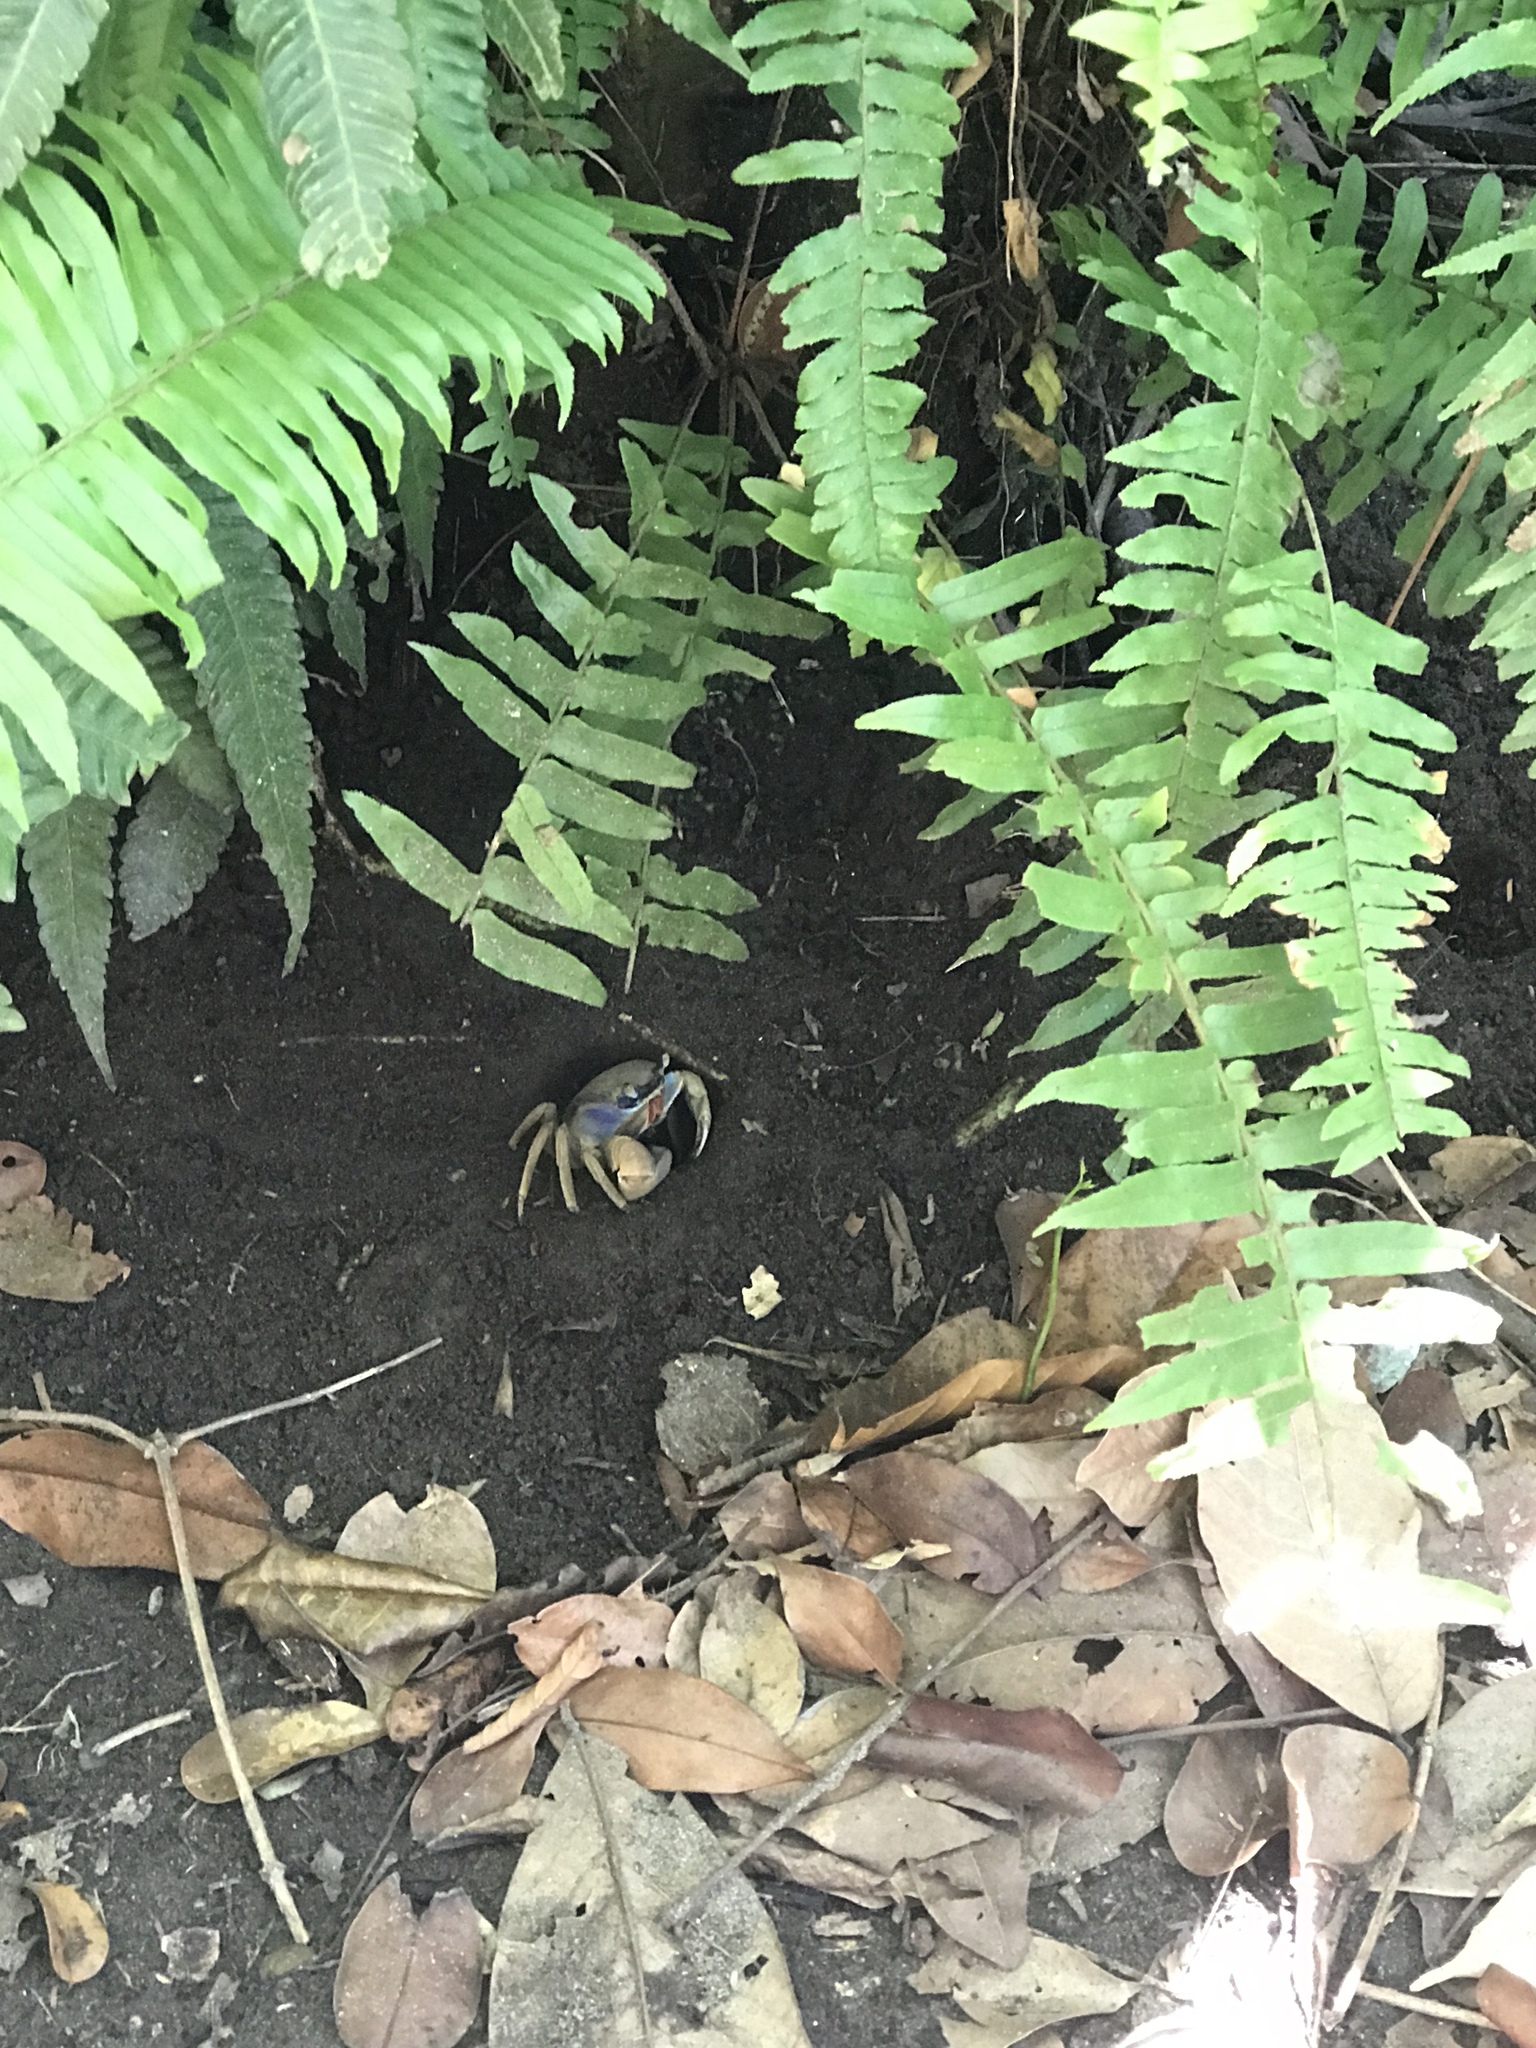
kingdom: Animalia
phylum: Arthropoda
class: Malacostraca
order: Decapoda
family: Gecarcinidae
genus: Cardisoma
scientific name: Cardisoma guanhumi
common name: Great land crab
